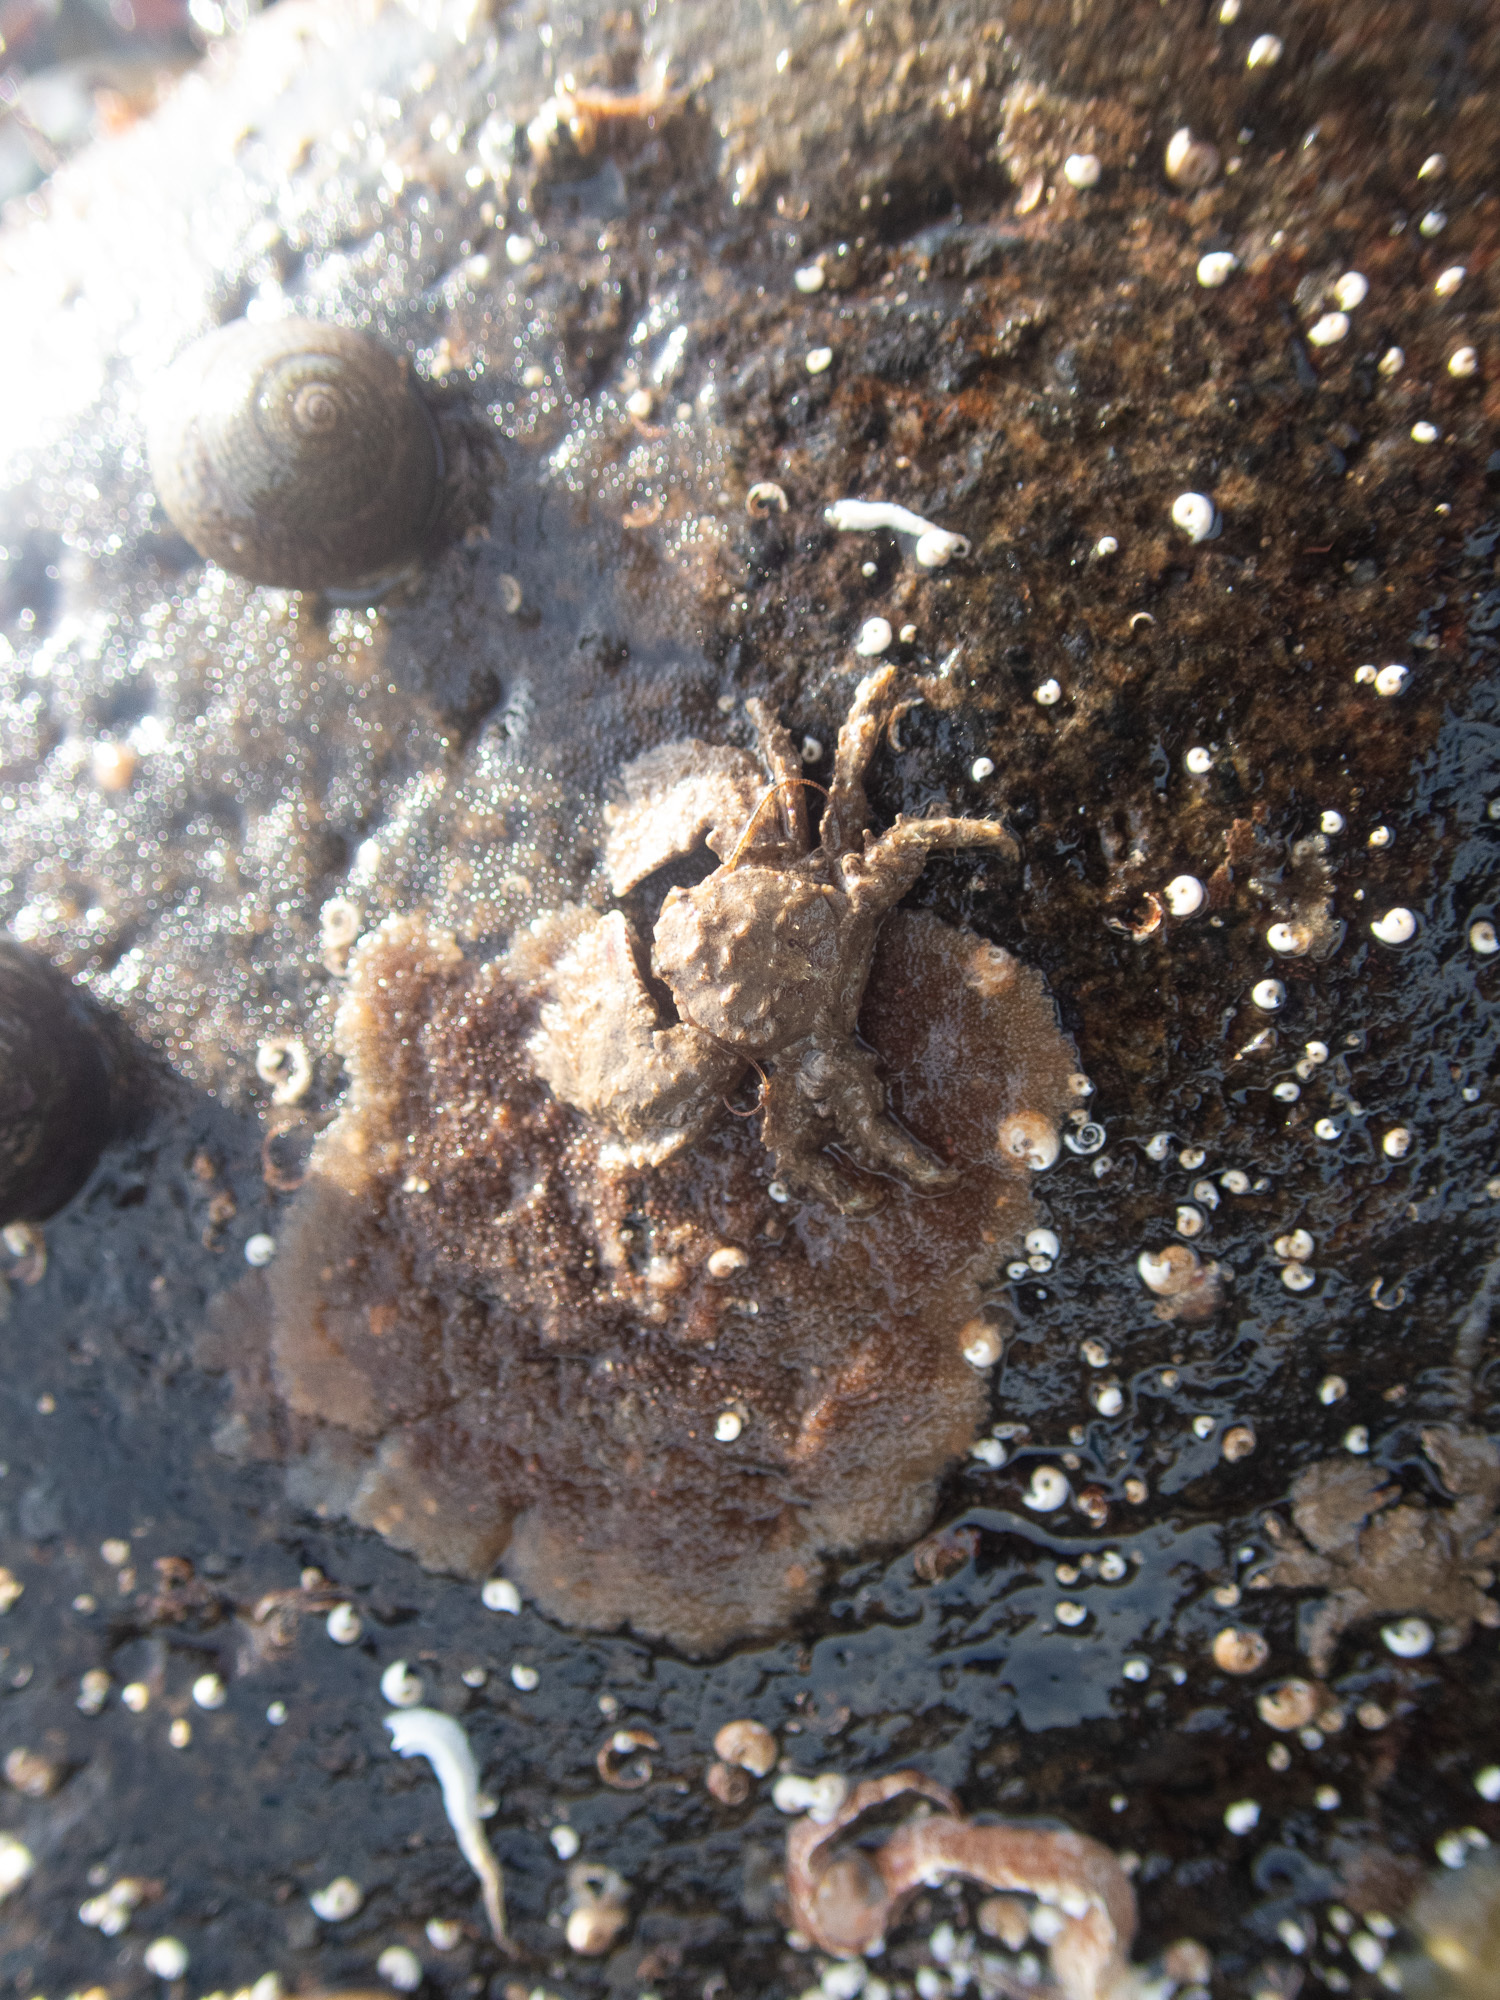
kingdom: Animalia
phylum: Arthropoda
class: Malacostraca
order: Decapoda
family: Porcellanidae
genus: Porcellana
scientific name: Porcellana platycheles
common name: Porcelain crab
